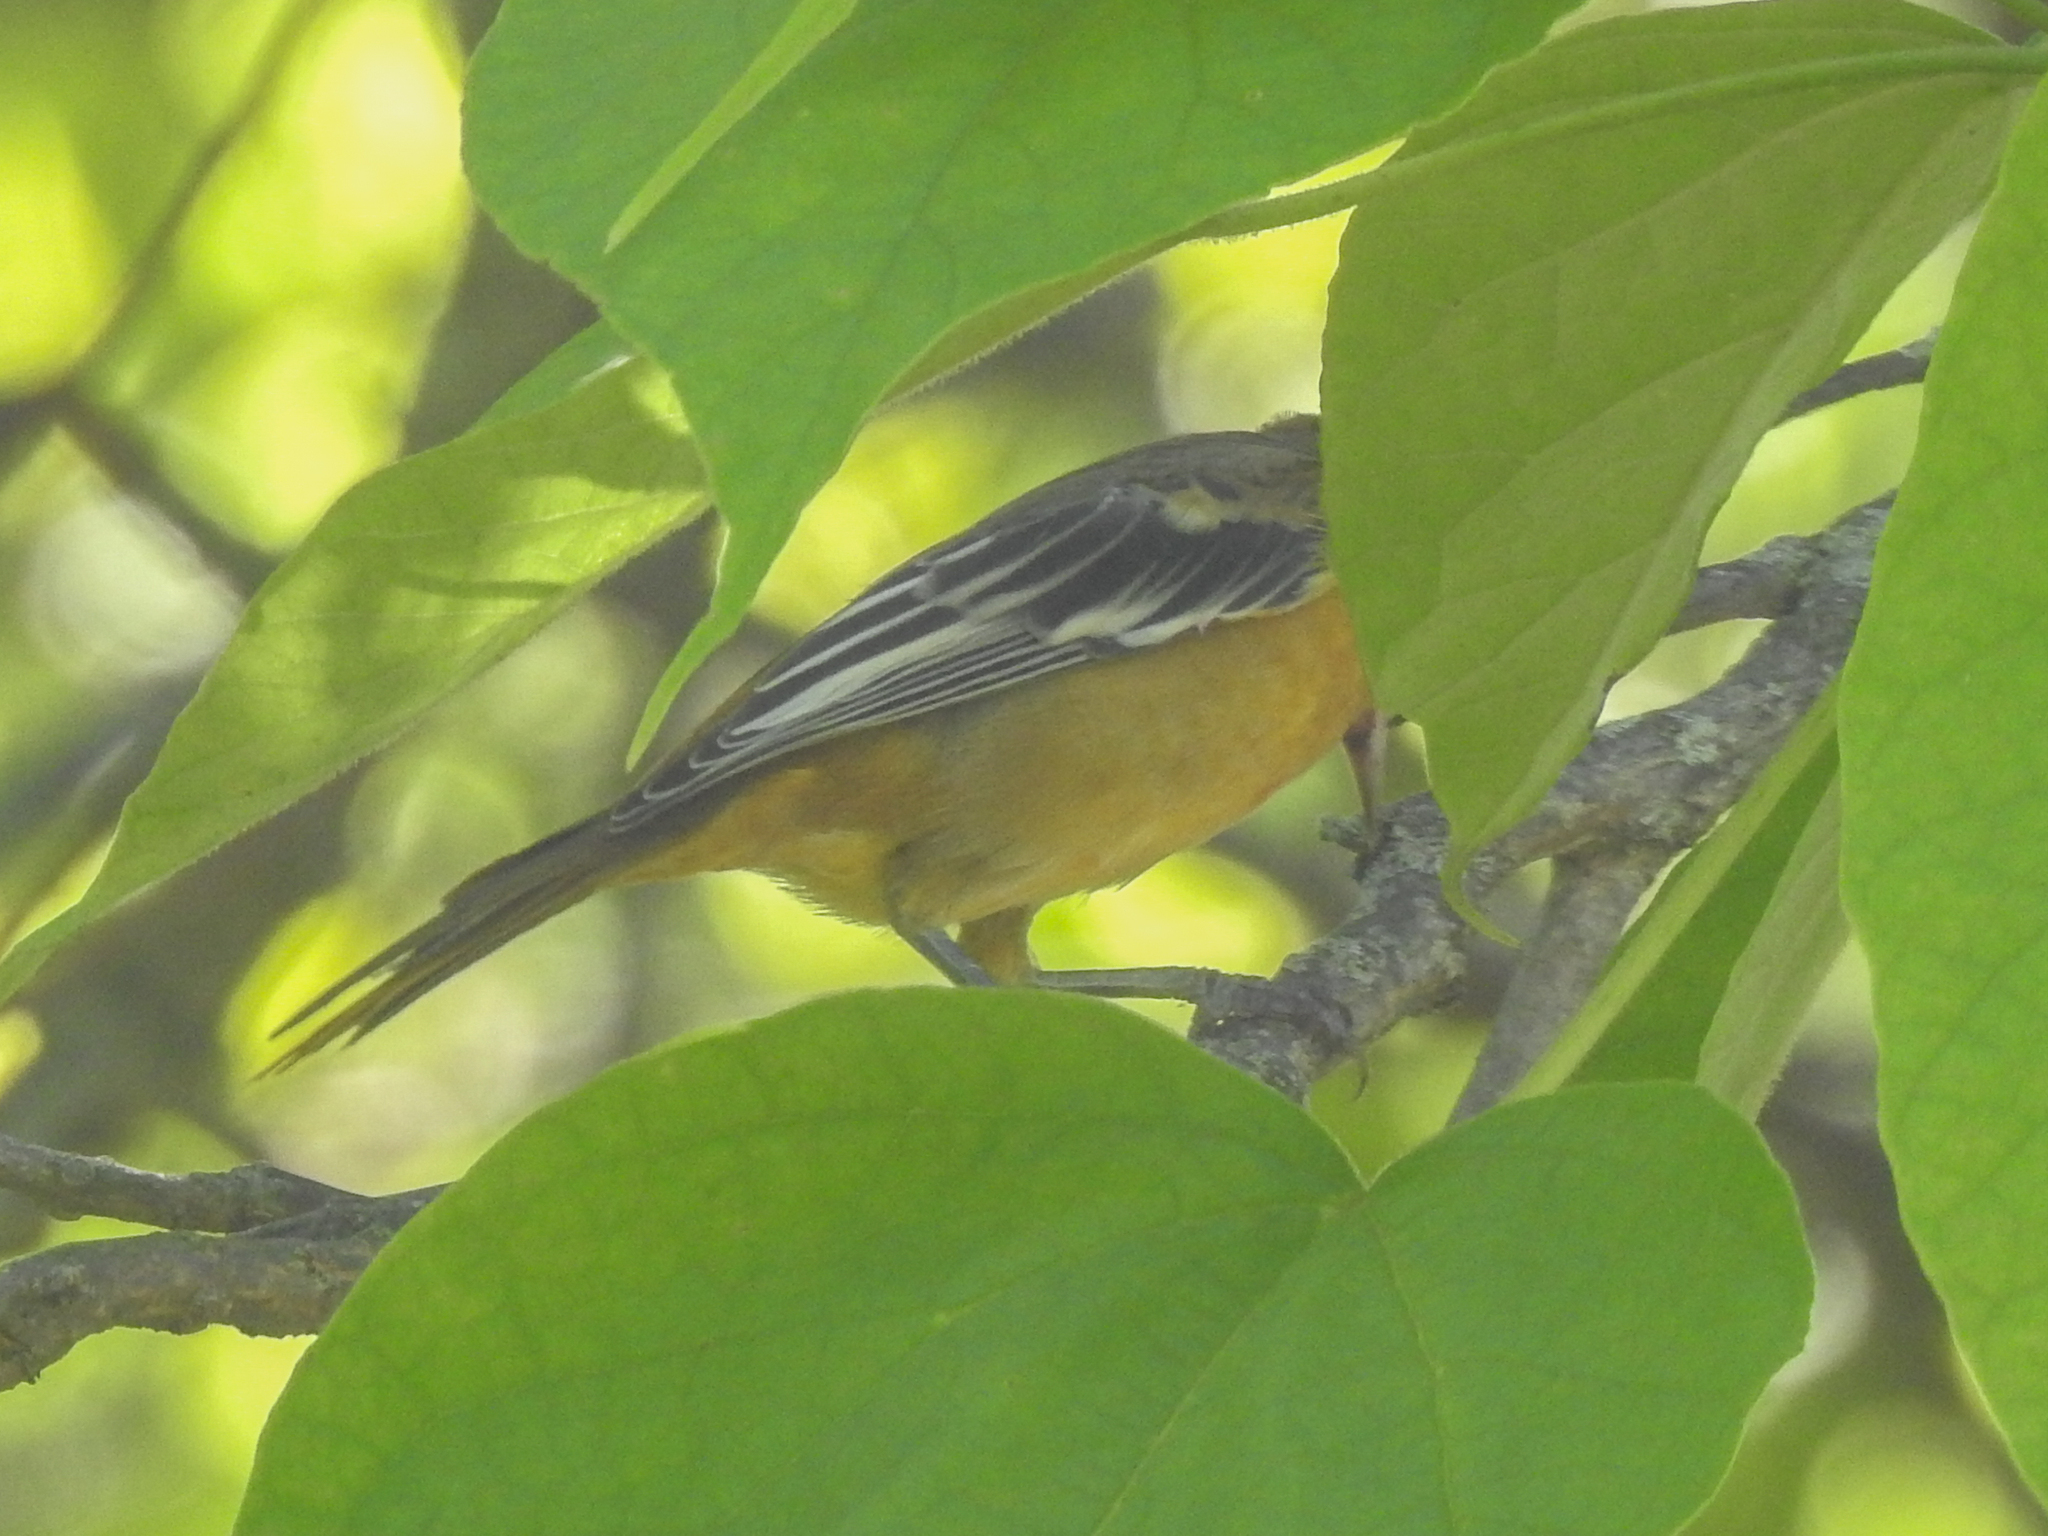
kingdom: Animalia
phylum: Chordata
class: Aves
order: Passeriformes
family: Icteridae
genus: Icterus
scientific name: Icterus galbula
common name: Baltimore oriole
